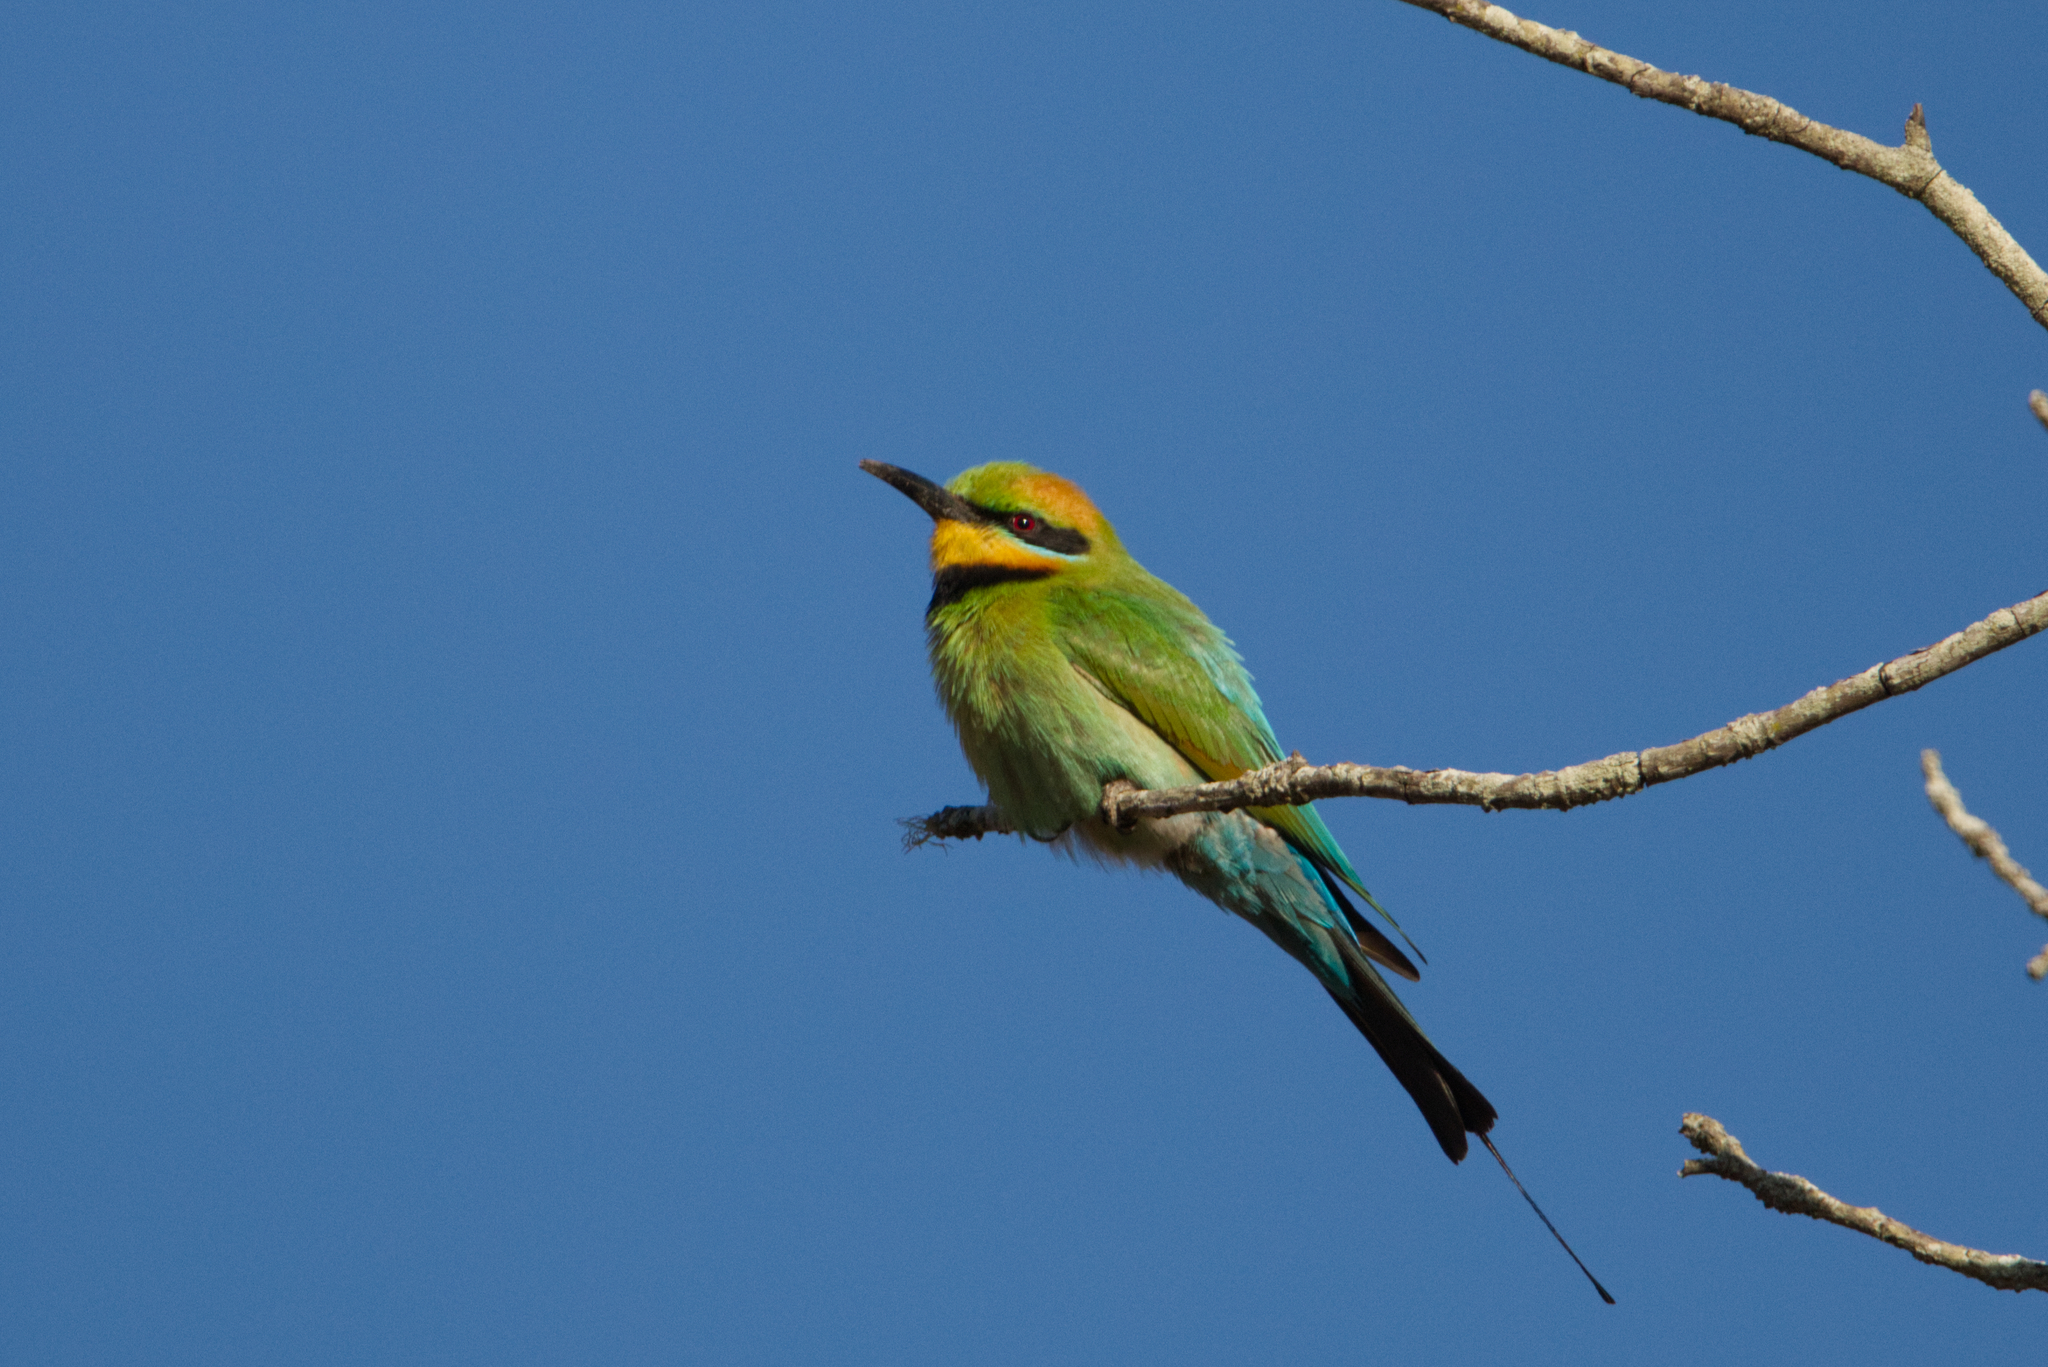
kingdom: Animalia
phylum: Chordata
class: Aves
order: Coraciiformes
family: Meropidae
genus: Merops
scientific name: Merops ornatus
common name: Rainbow bee-eater
